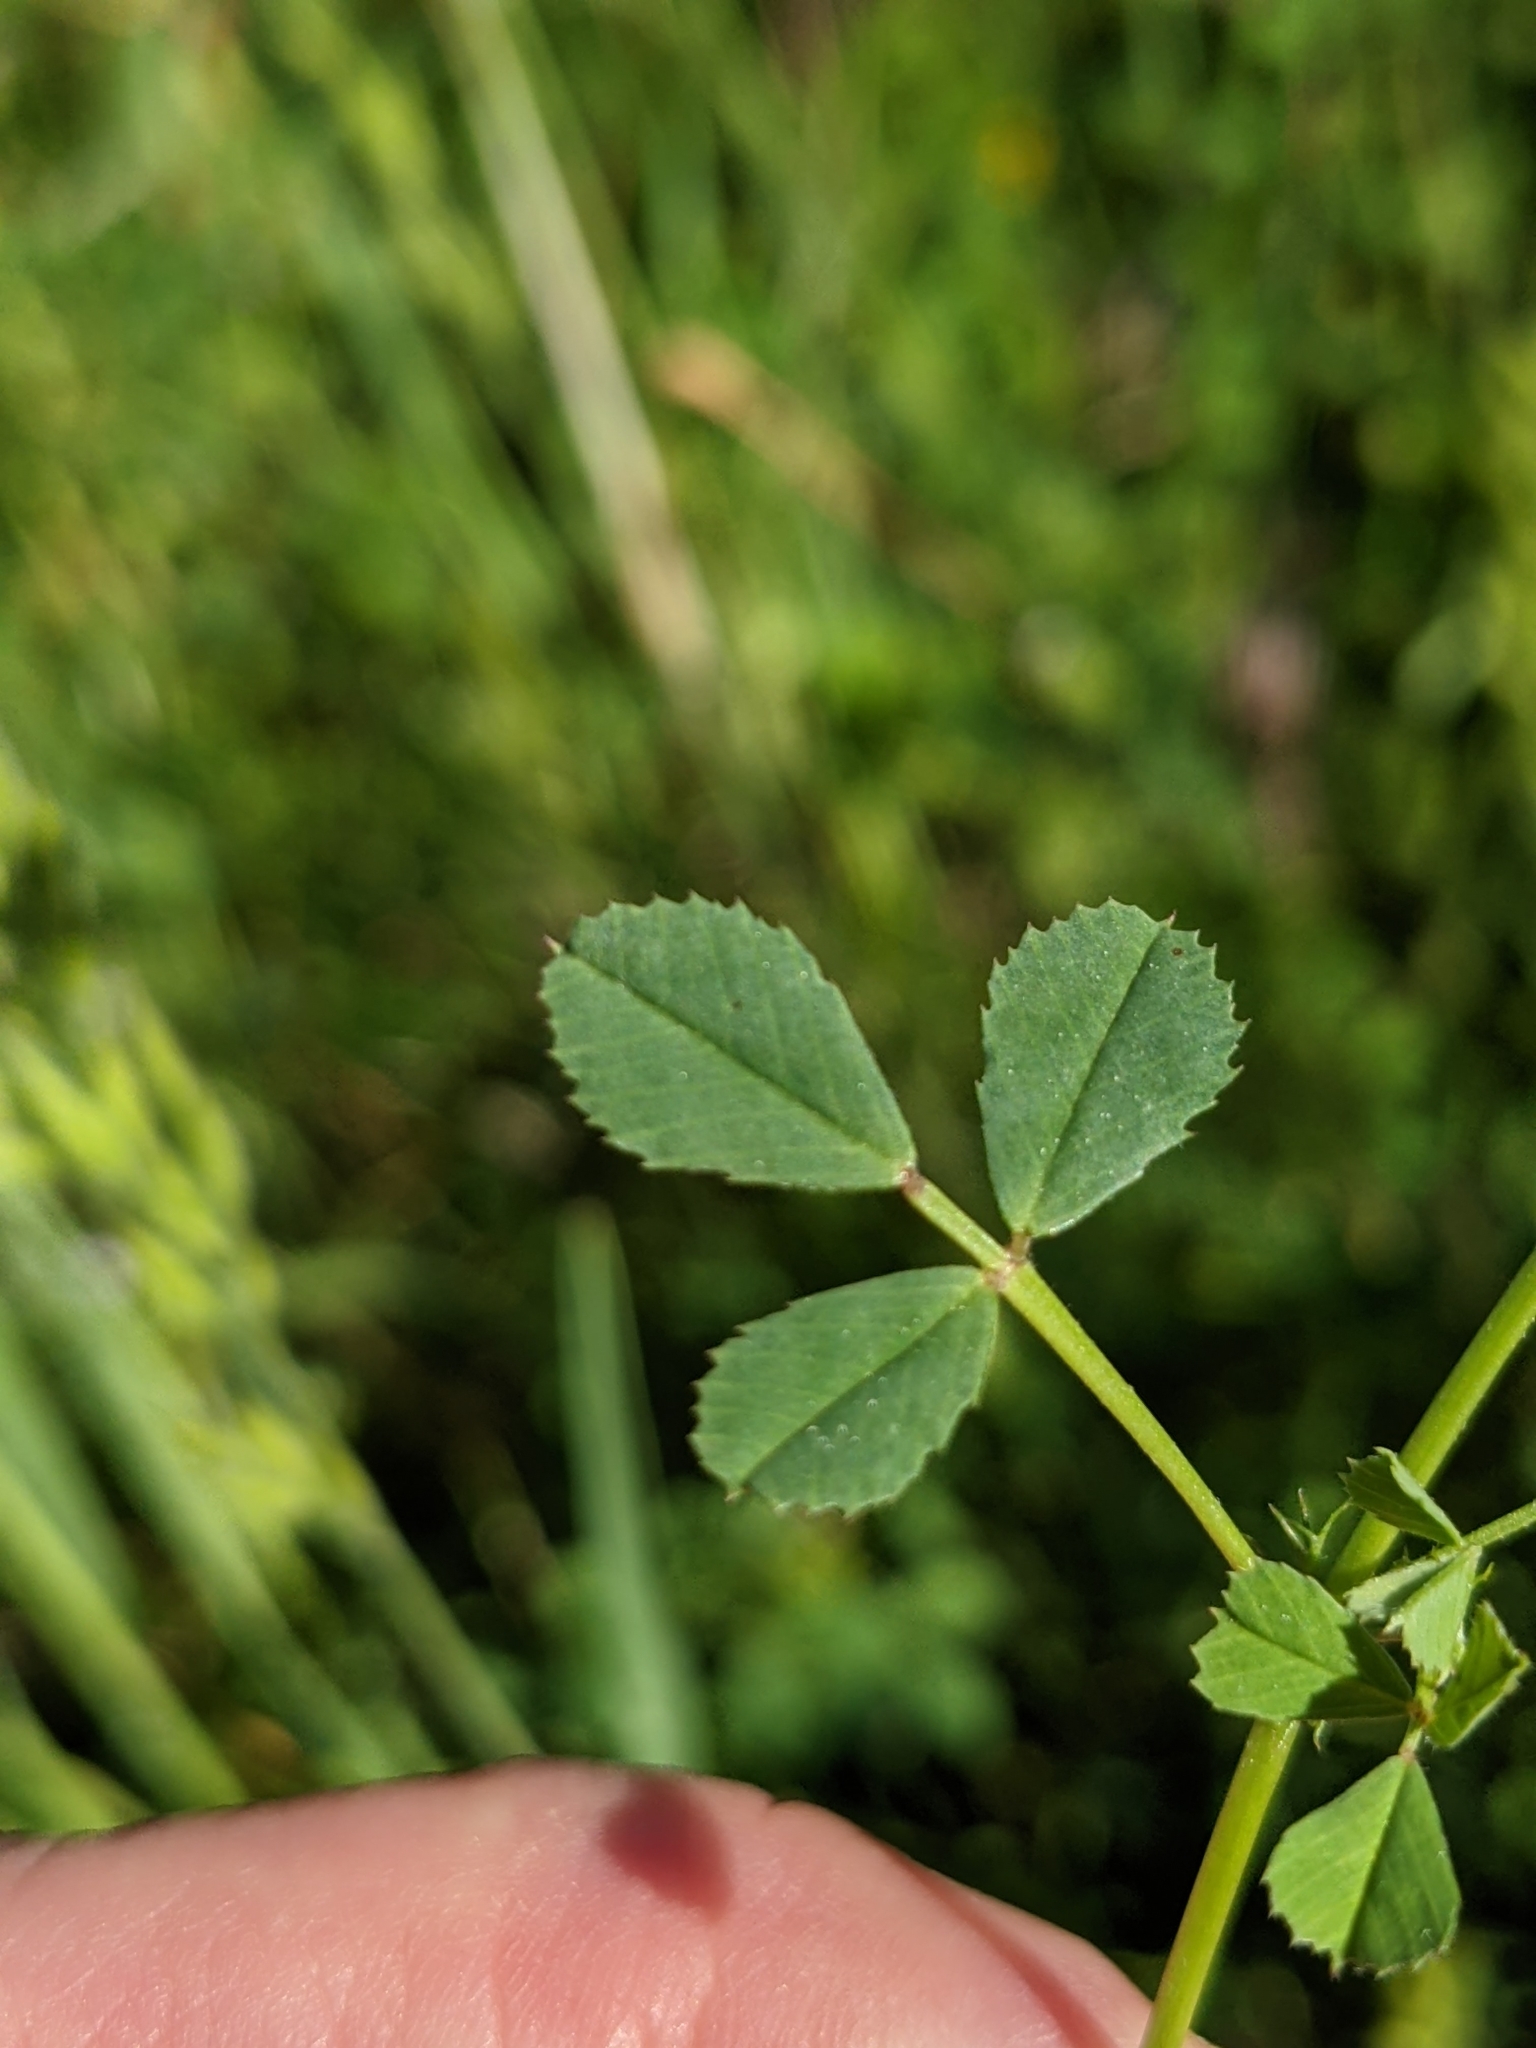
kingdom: Plantae
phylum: Tracheophyta
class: Magnoliopsida
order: Fabales
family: Fabaceae
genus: Medicago
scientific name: Medicago orbicularis
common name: Button medick
